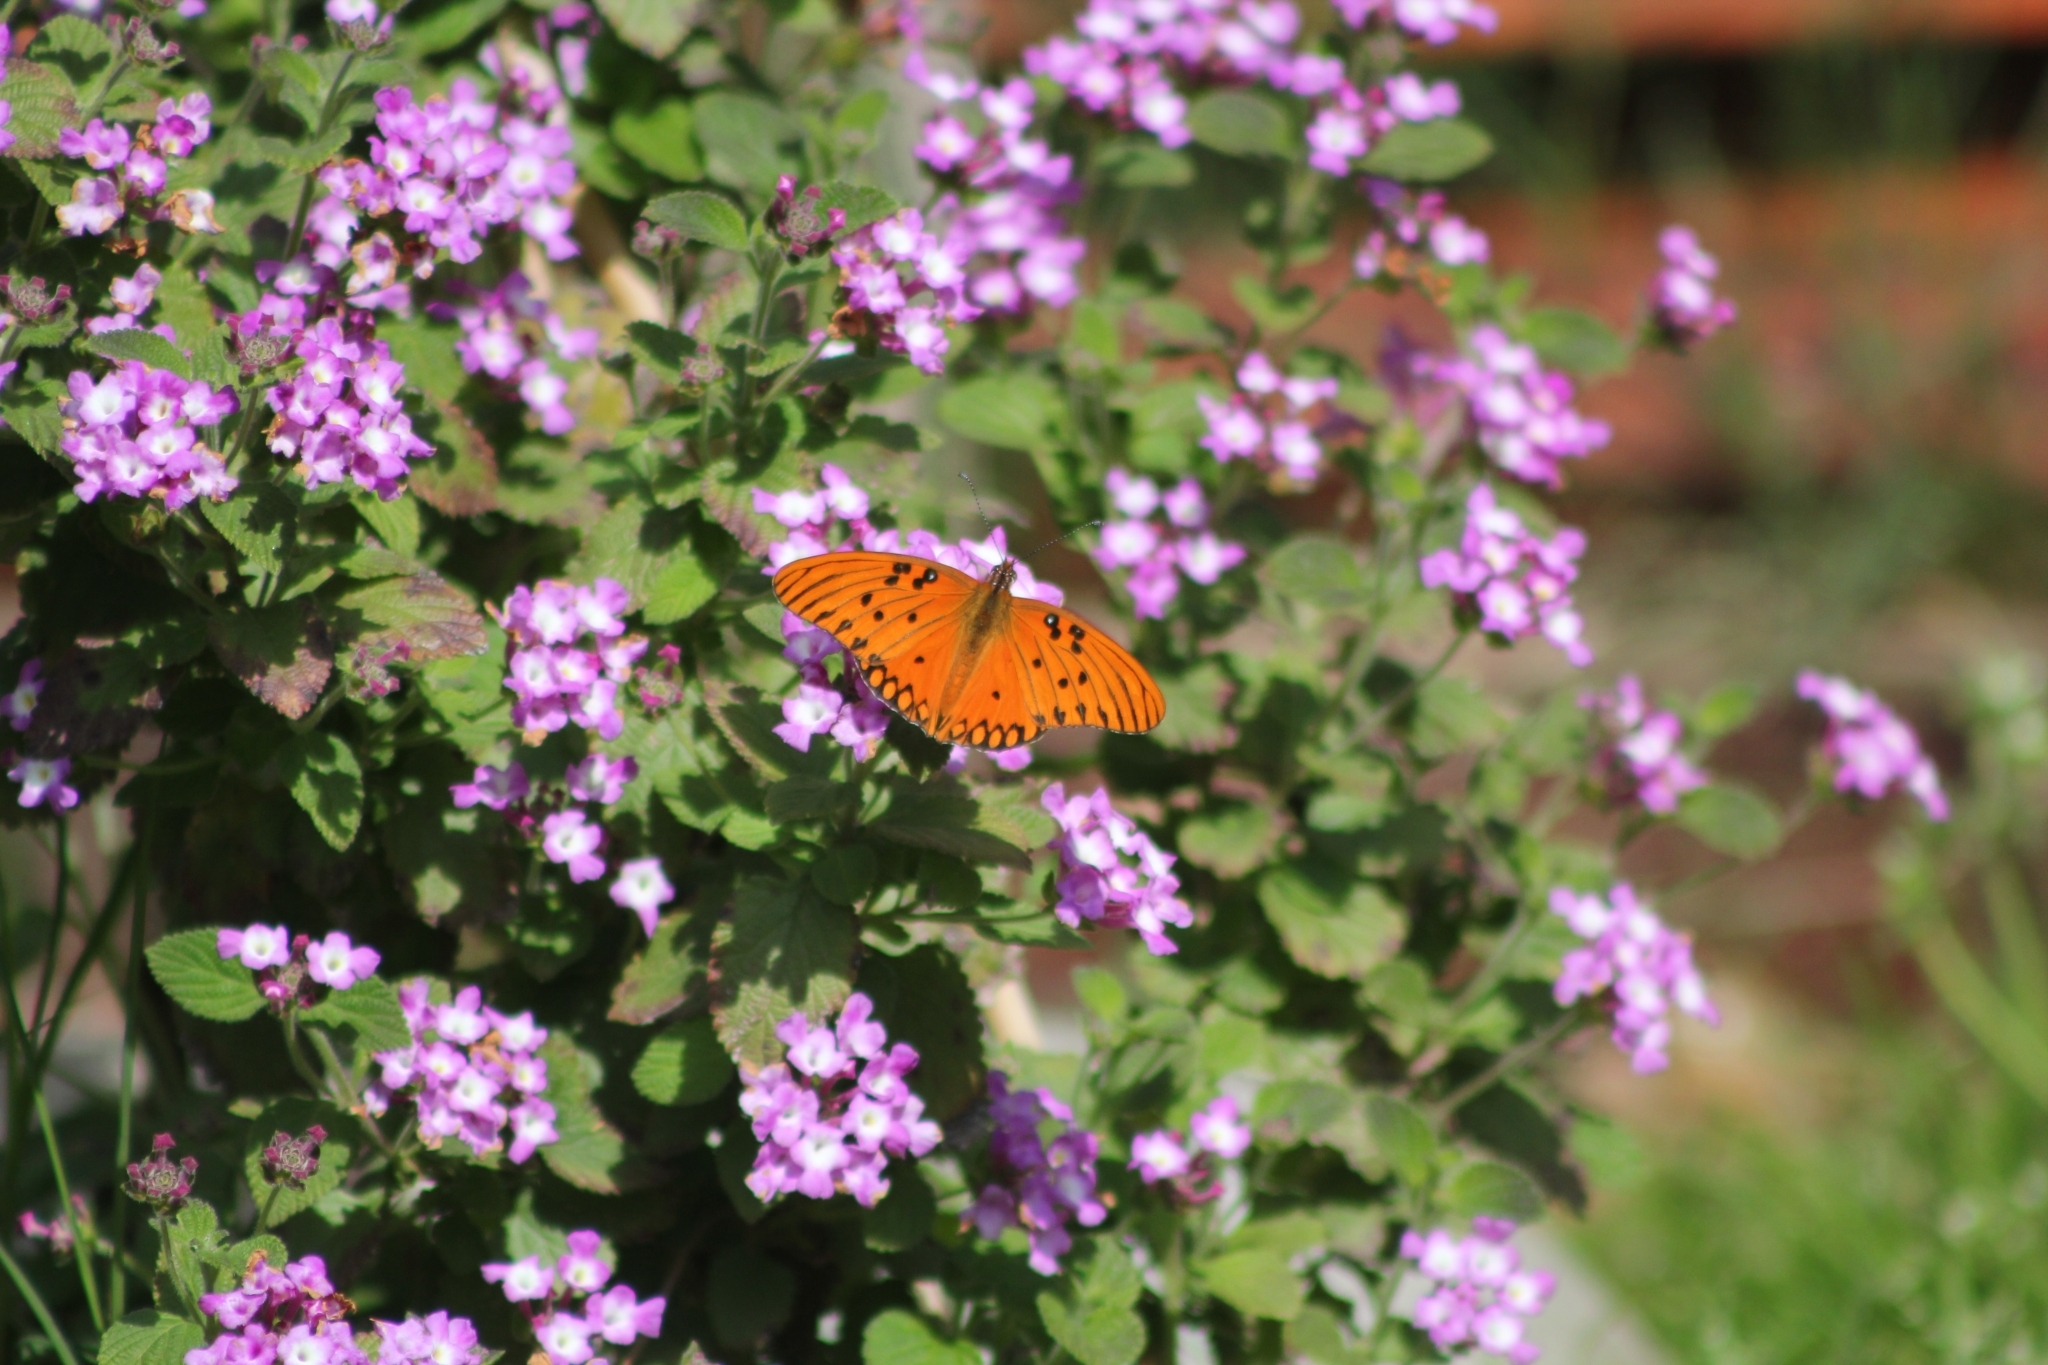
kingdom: Animalia
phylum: Arthropoda
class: Insecta
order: Lepidoptera
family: Nymphalidae
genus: Dione
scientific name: Dione vanillae
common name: Gulf fritillary
